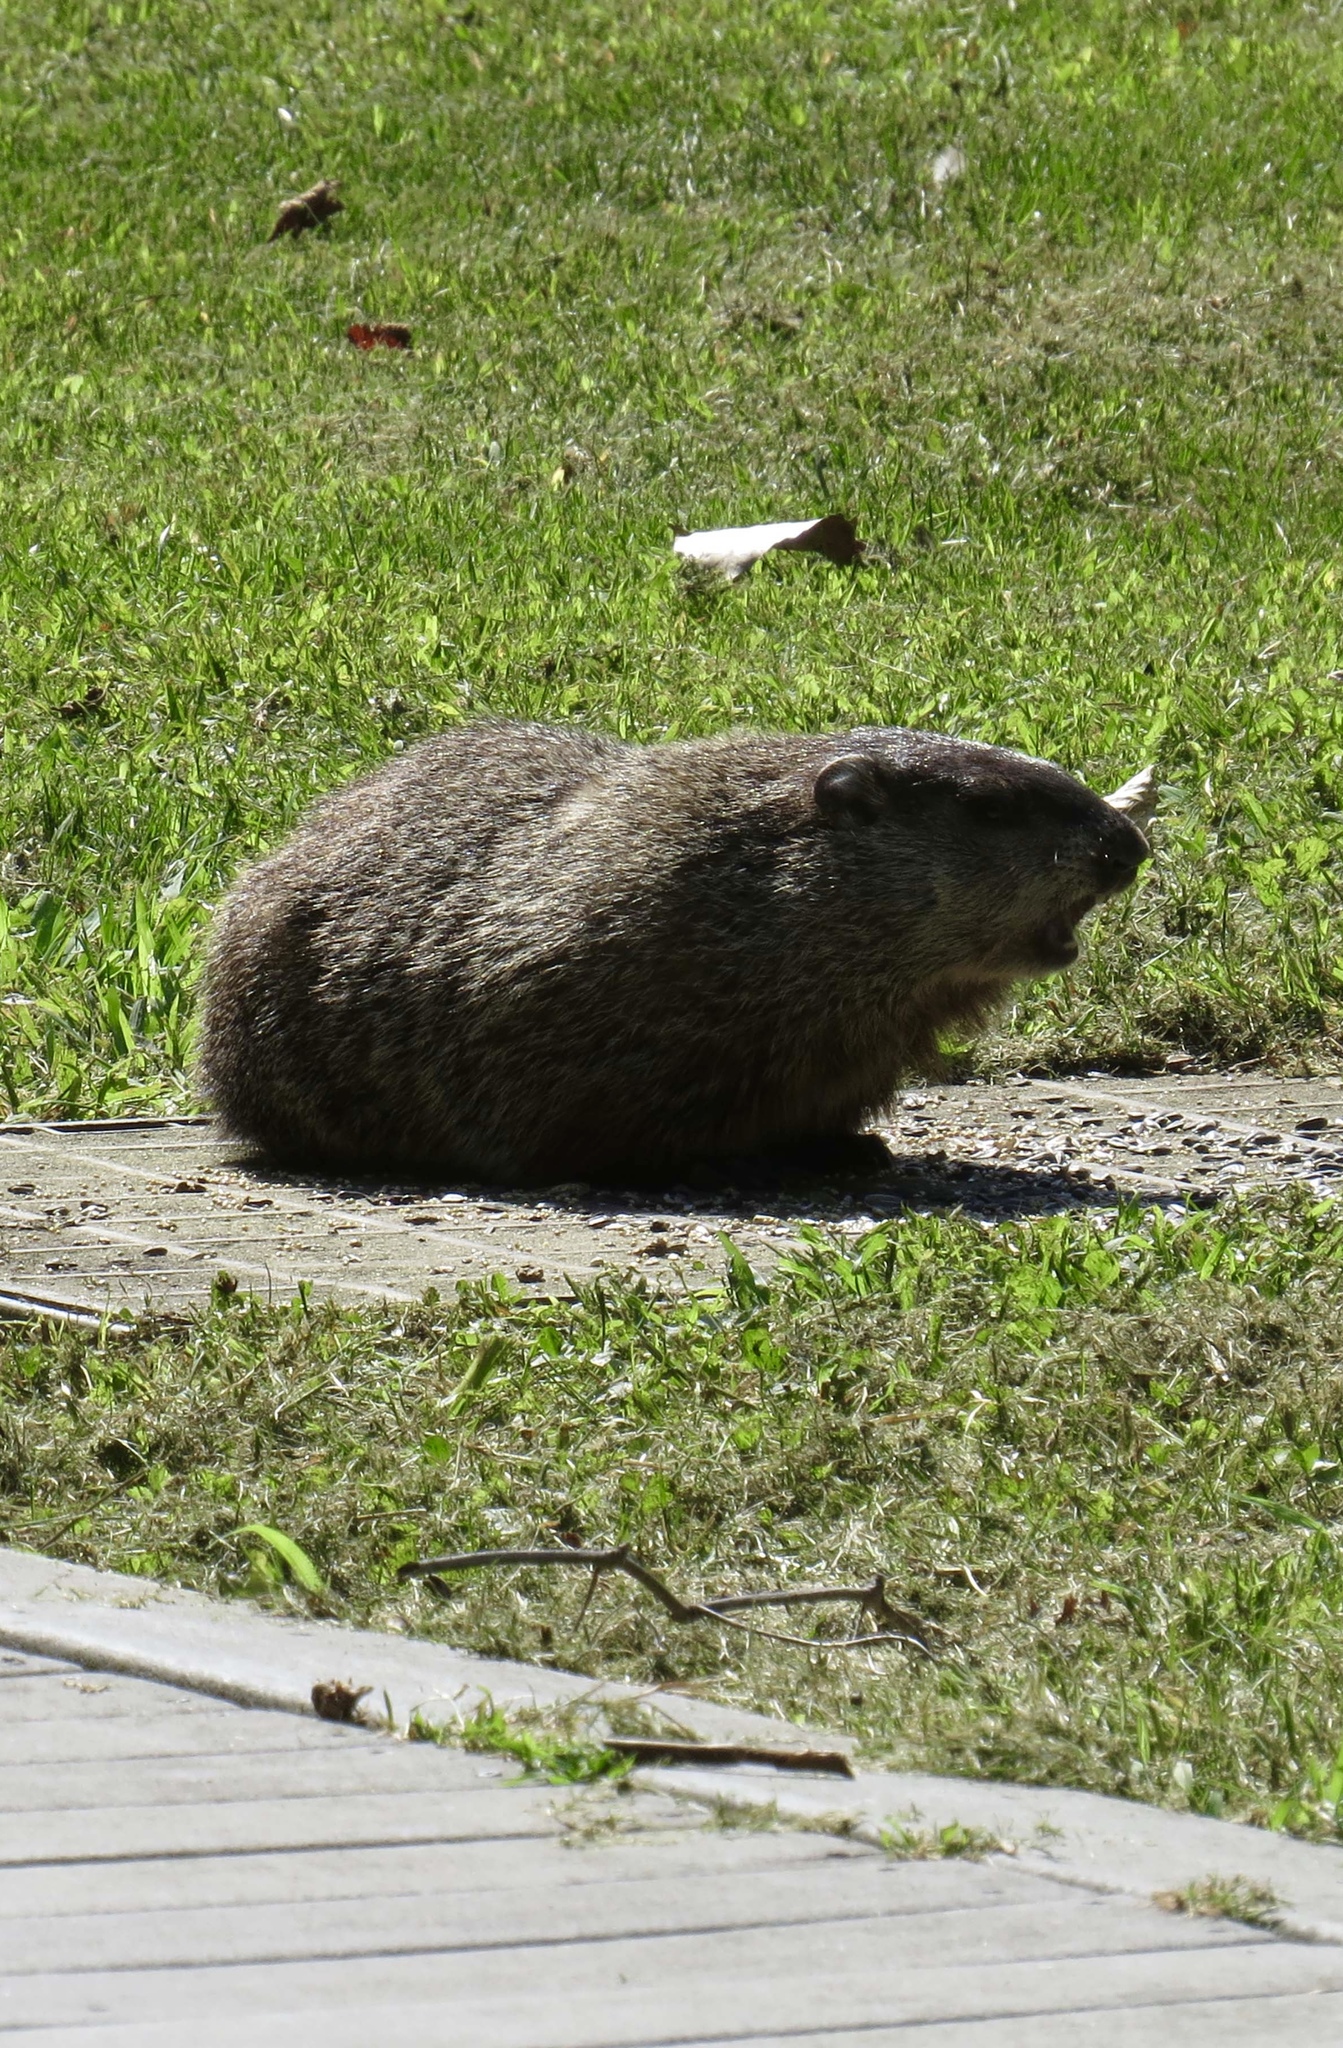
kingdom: Animalia
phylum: Chordata
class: Mammalia
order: Rodentia
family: Sciuridae
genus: Marmota
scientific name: Marmota monax
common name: Groundhog
